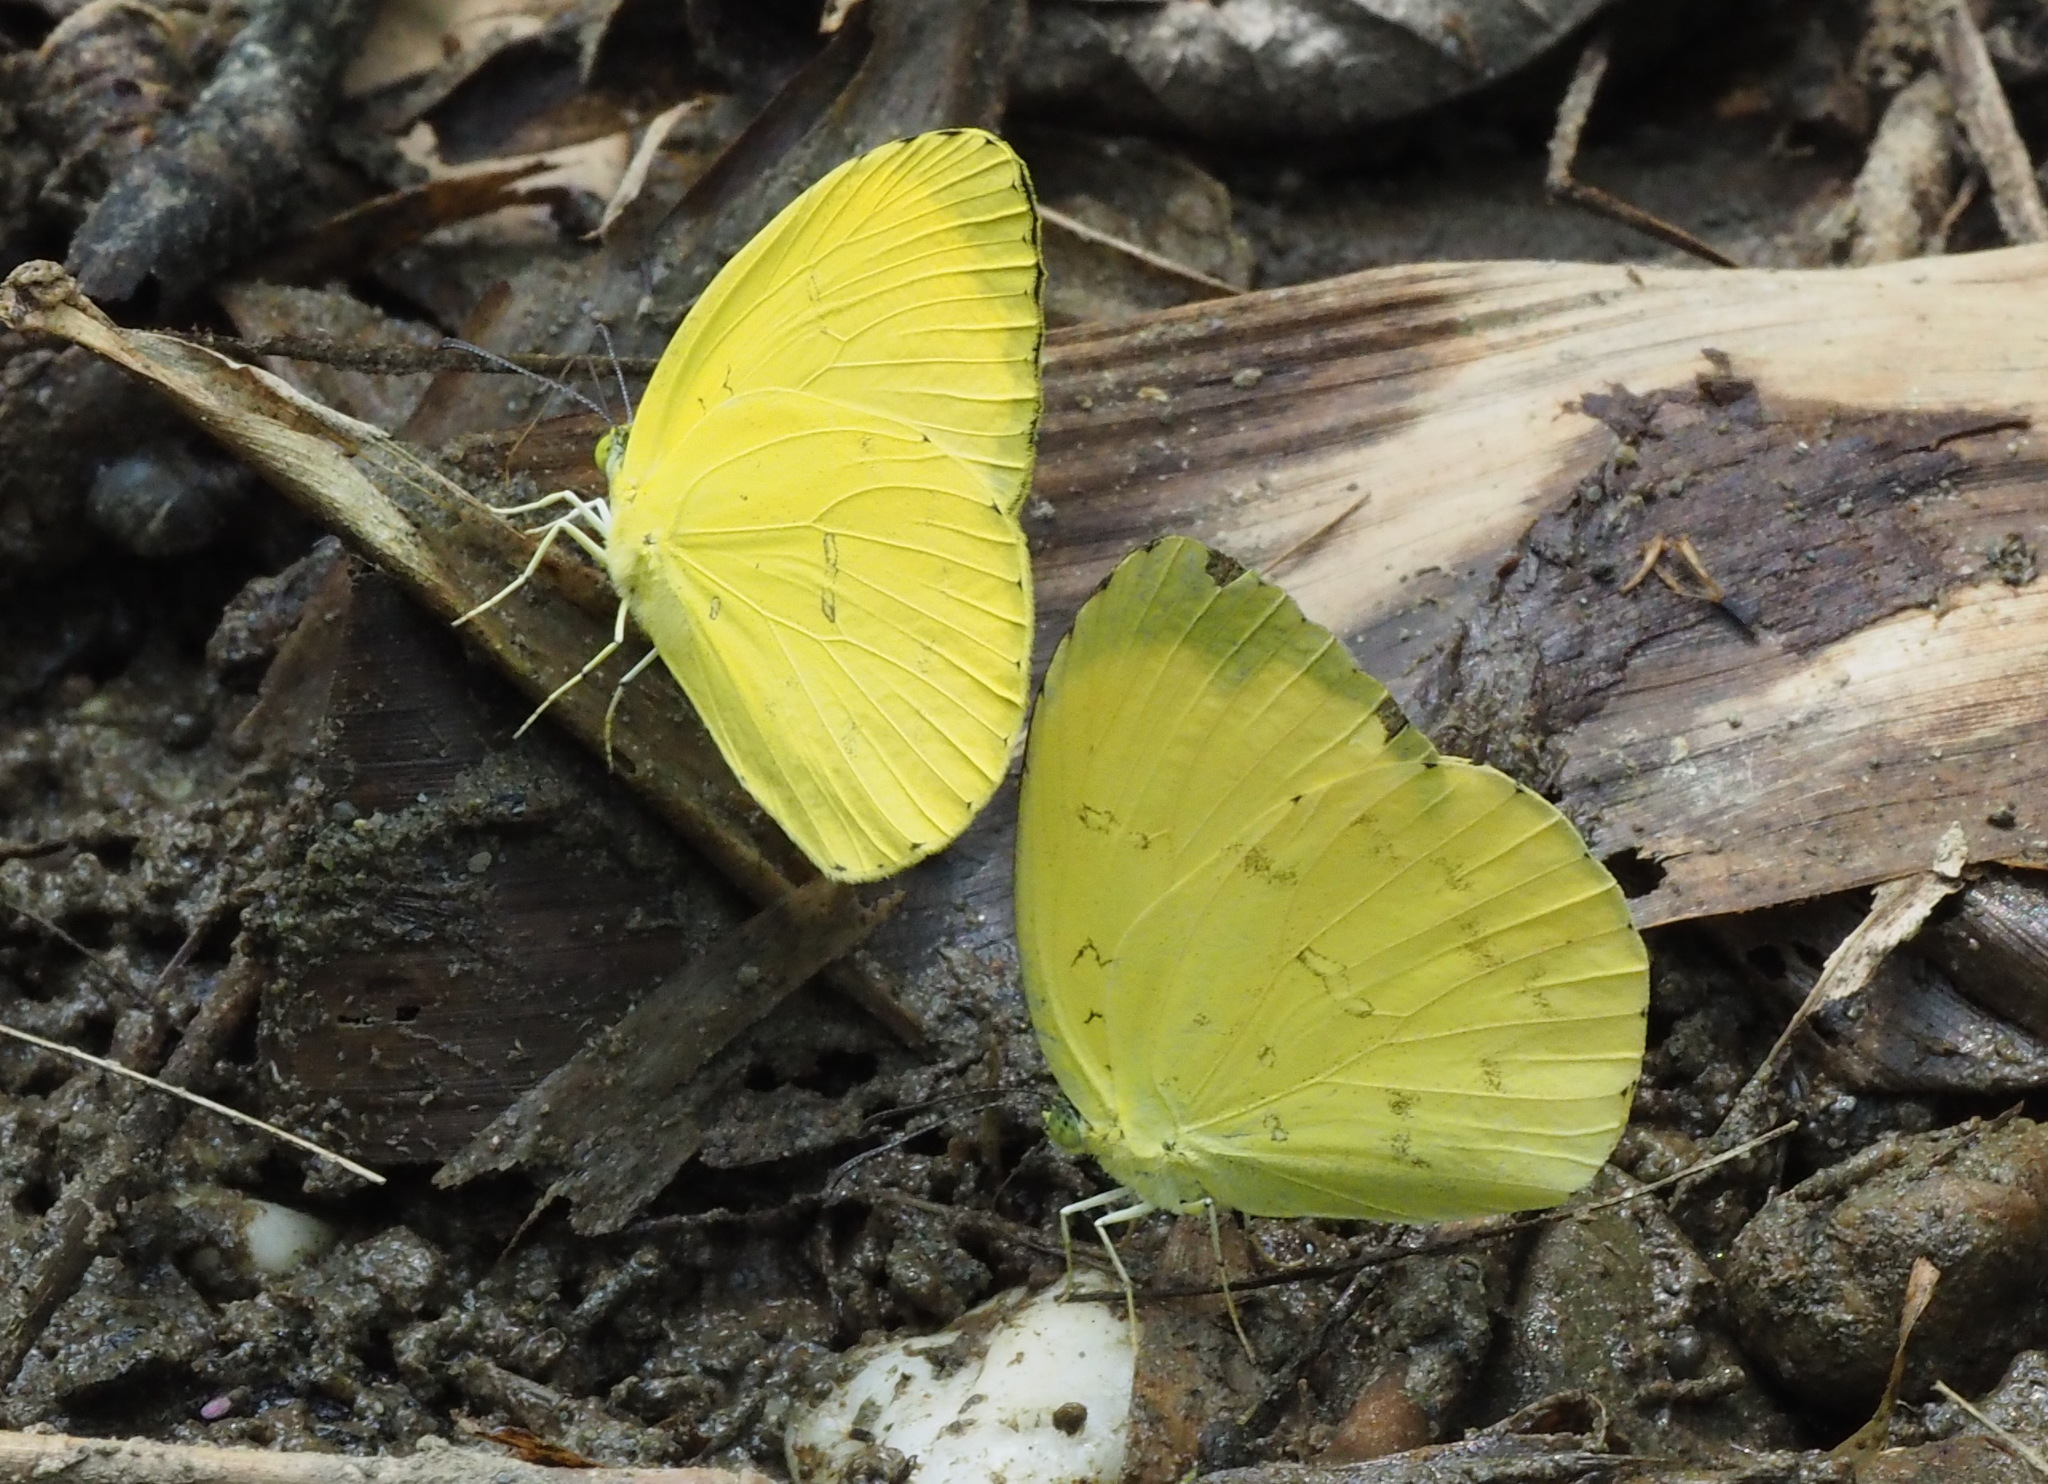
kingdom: Animalia
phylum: Arthropoda
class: Insecta
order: Lepidoptera
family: Pieridae
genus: Eurema
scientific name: Eurema blanda
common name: Three-spot grass yellow
